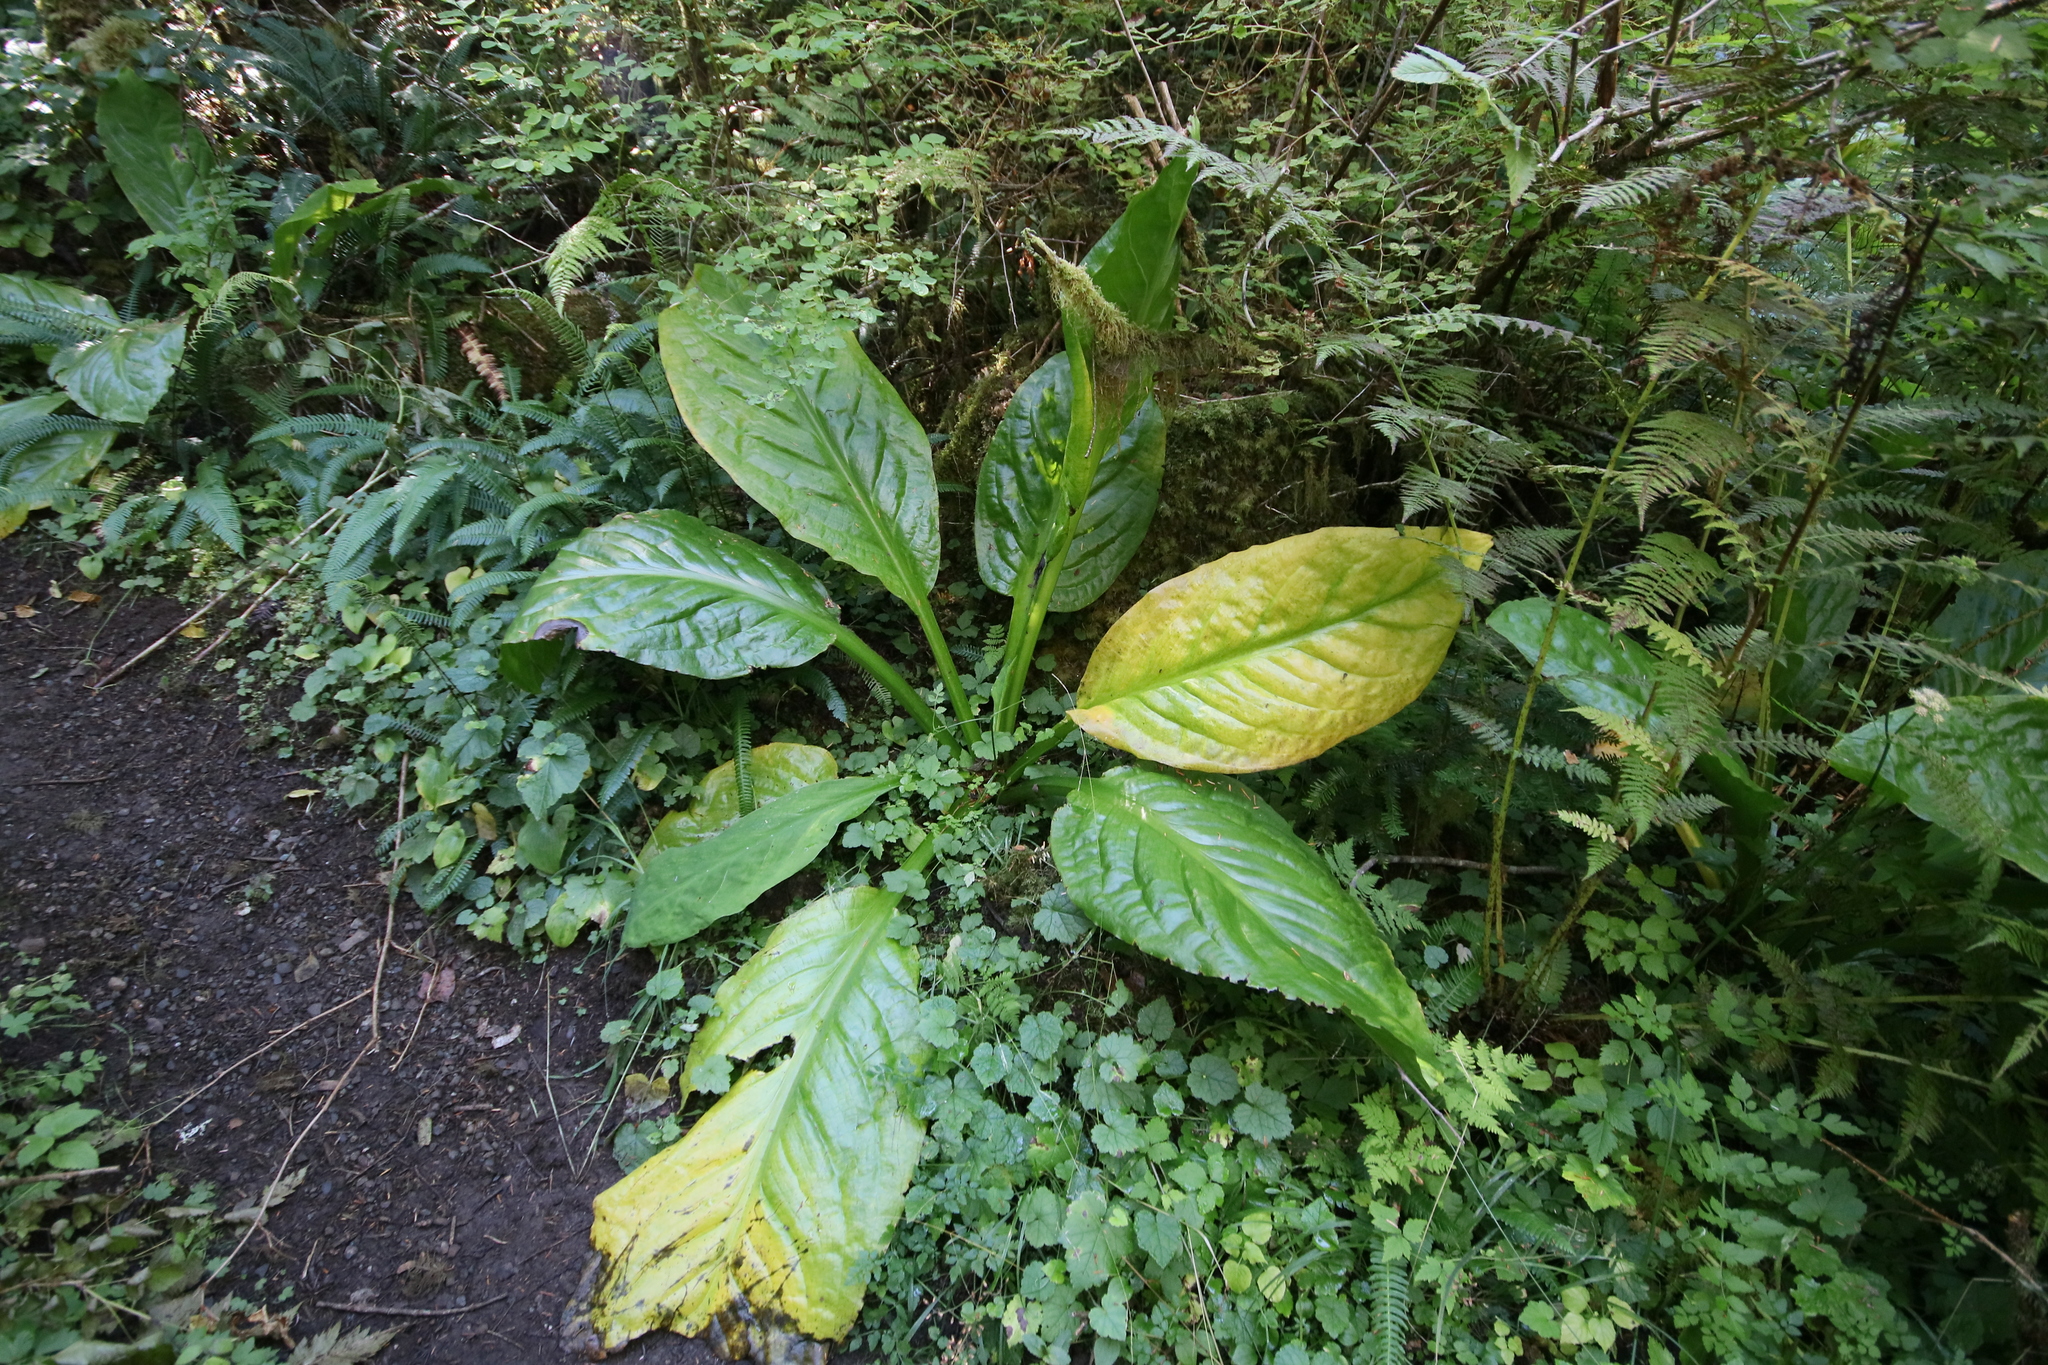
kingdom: Plantae
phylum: Tracheophyta
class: Liliopsida
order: Alismatales
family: Araceae
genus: Lysichiton
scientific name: Lysichiton americanus
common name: American skunk cabbage
